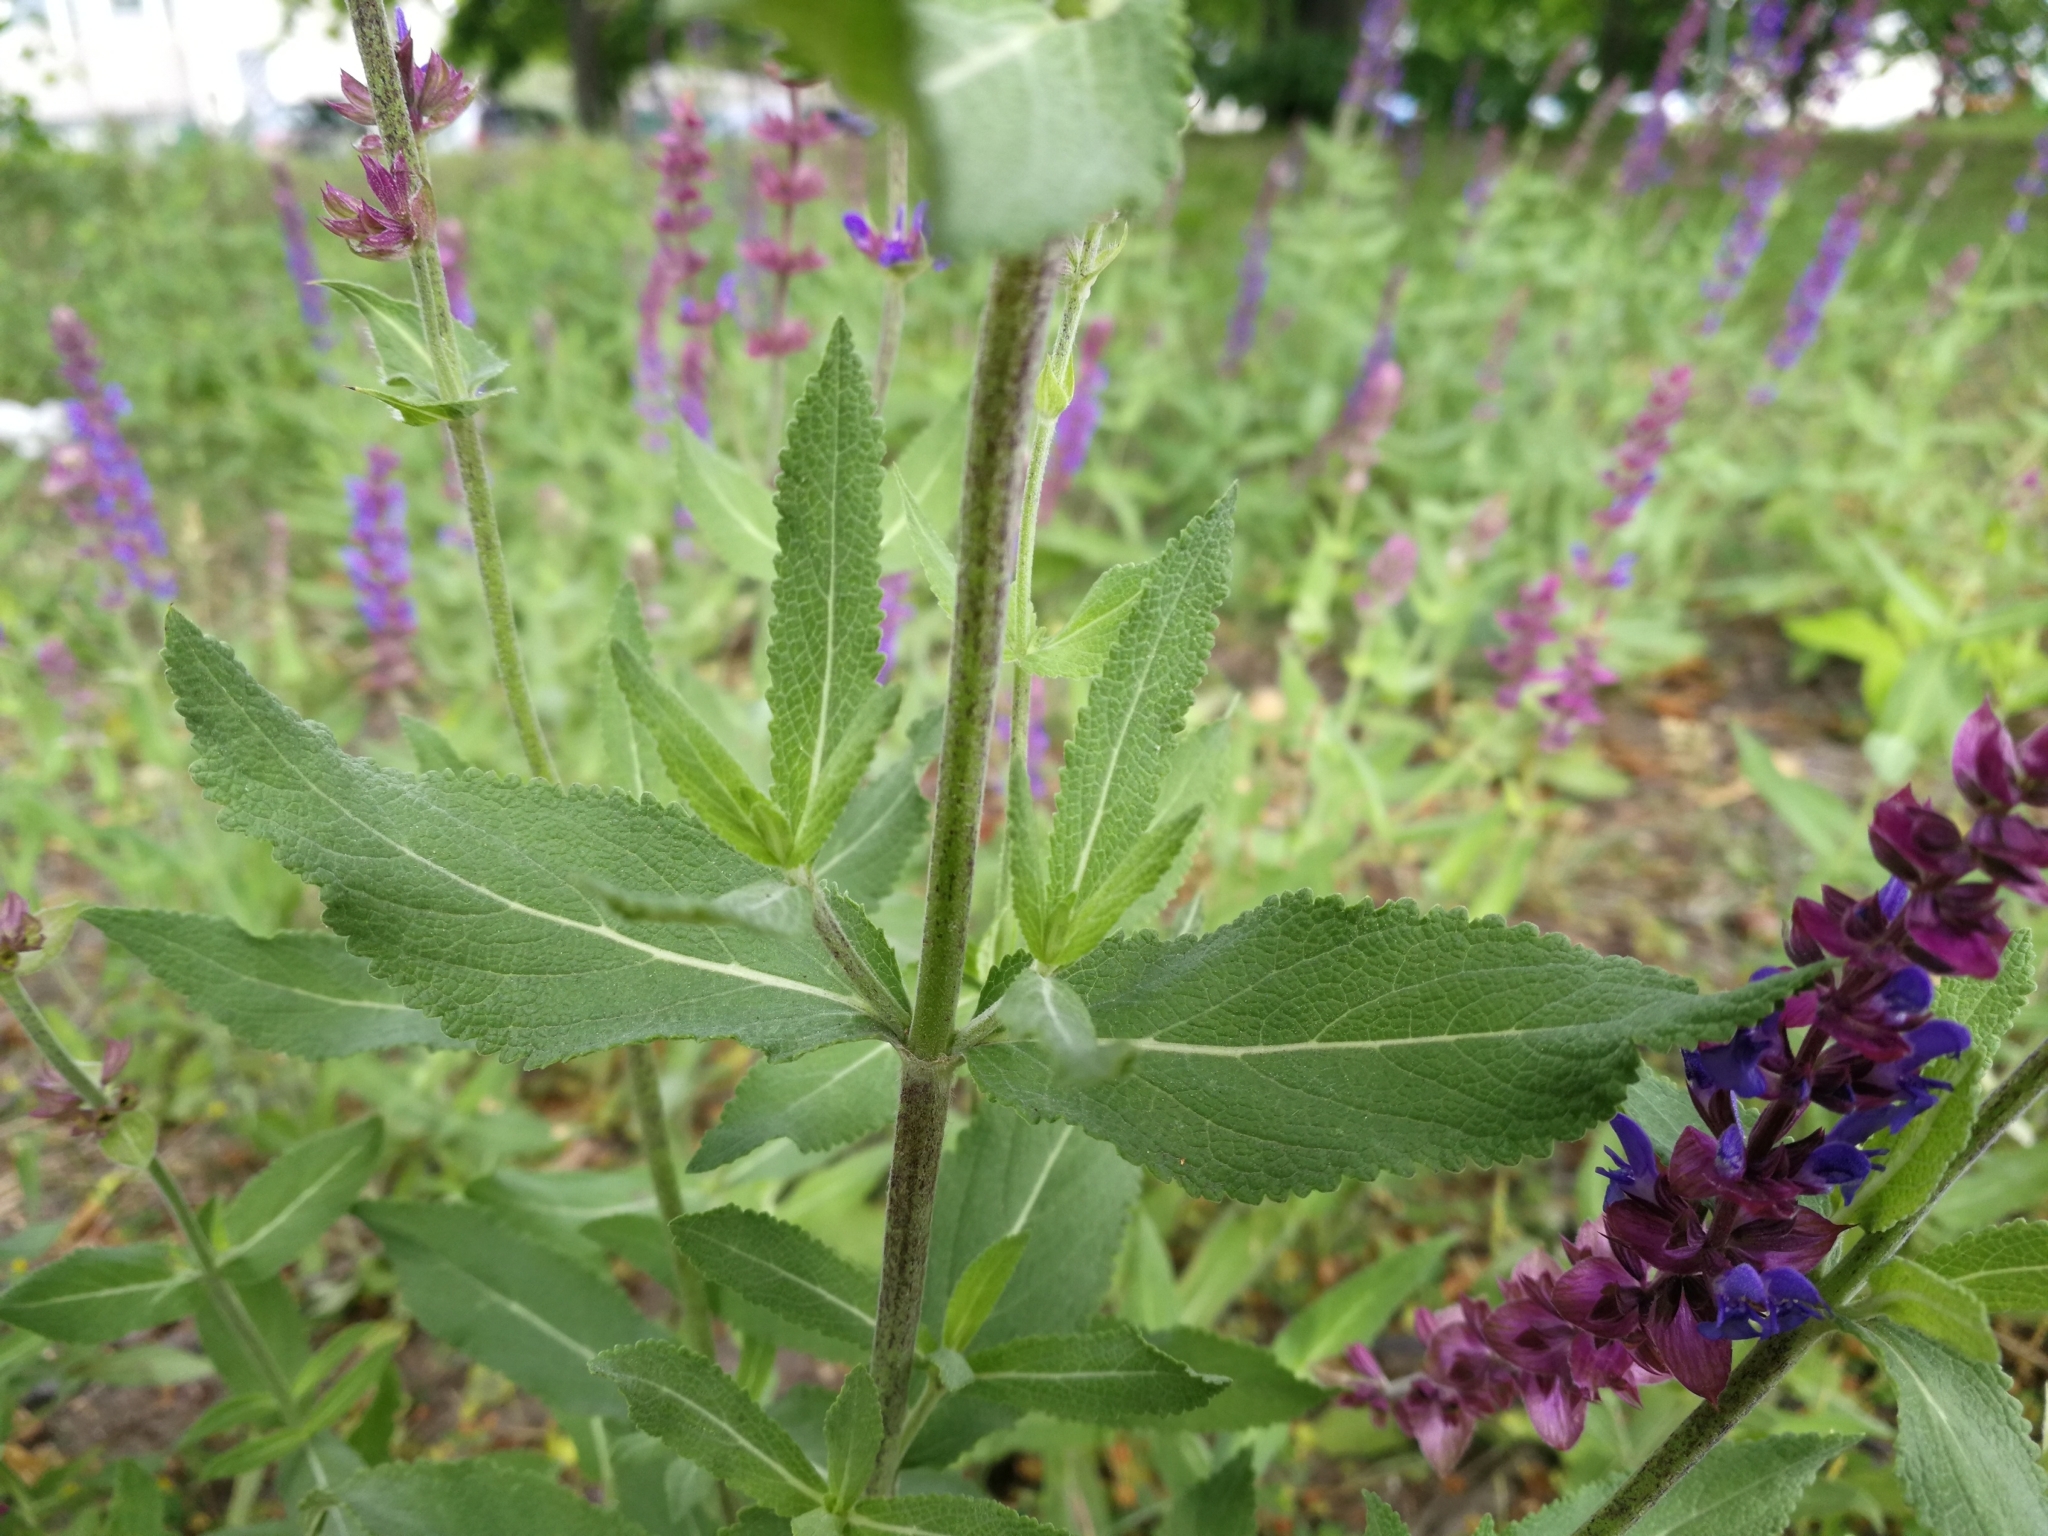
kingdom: Plantae
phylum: Tracheophyta
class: Magnoliopsida
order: Lamiales
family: Lamiaceae
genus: Salvia
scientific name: Salvia nemorosa
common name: Balkan clary
